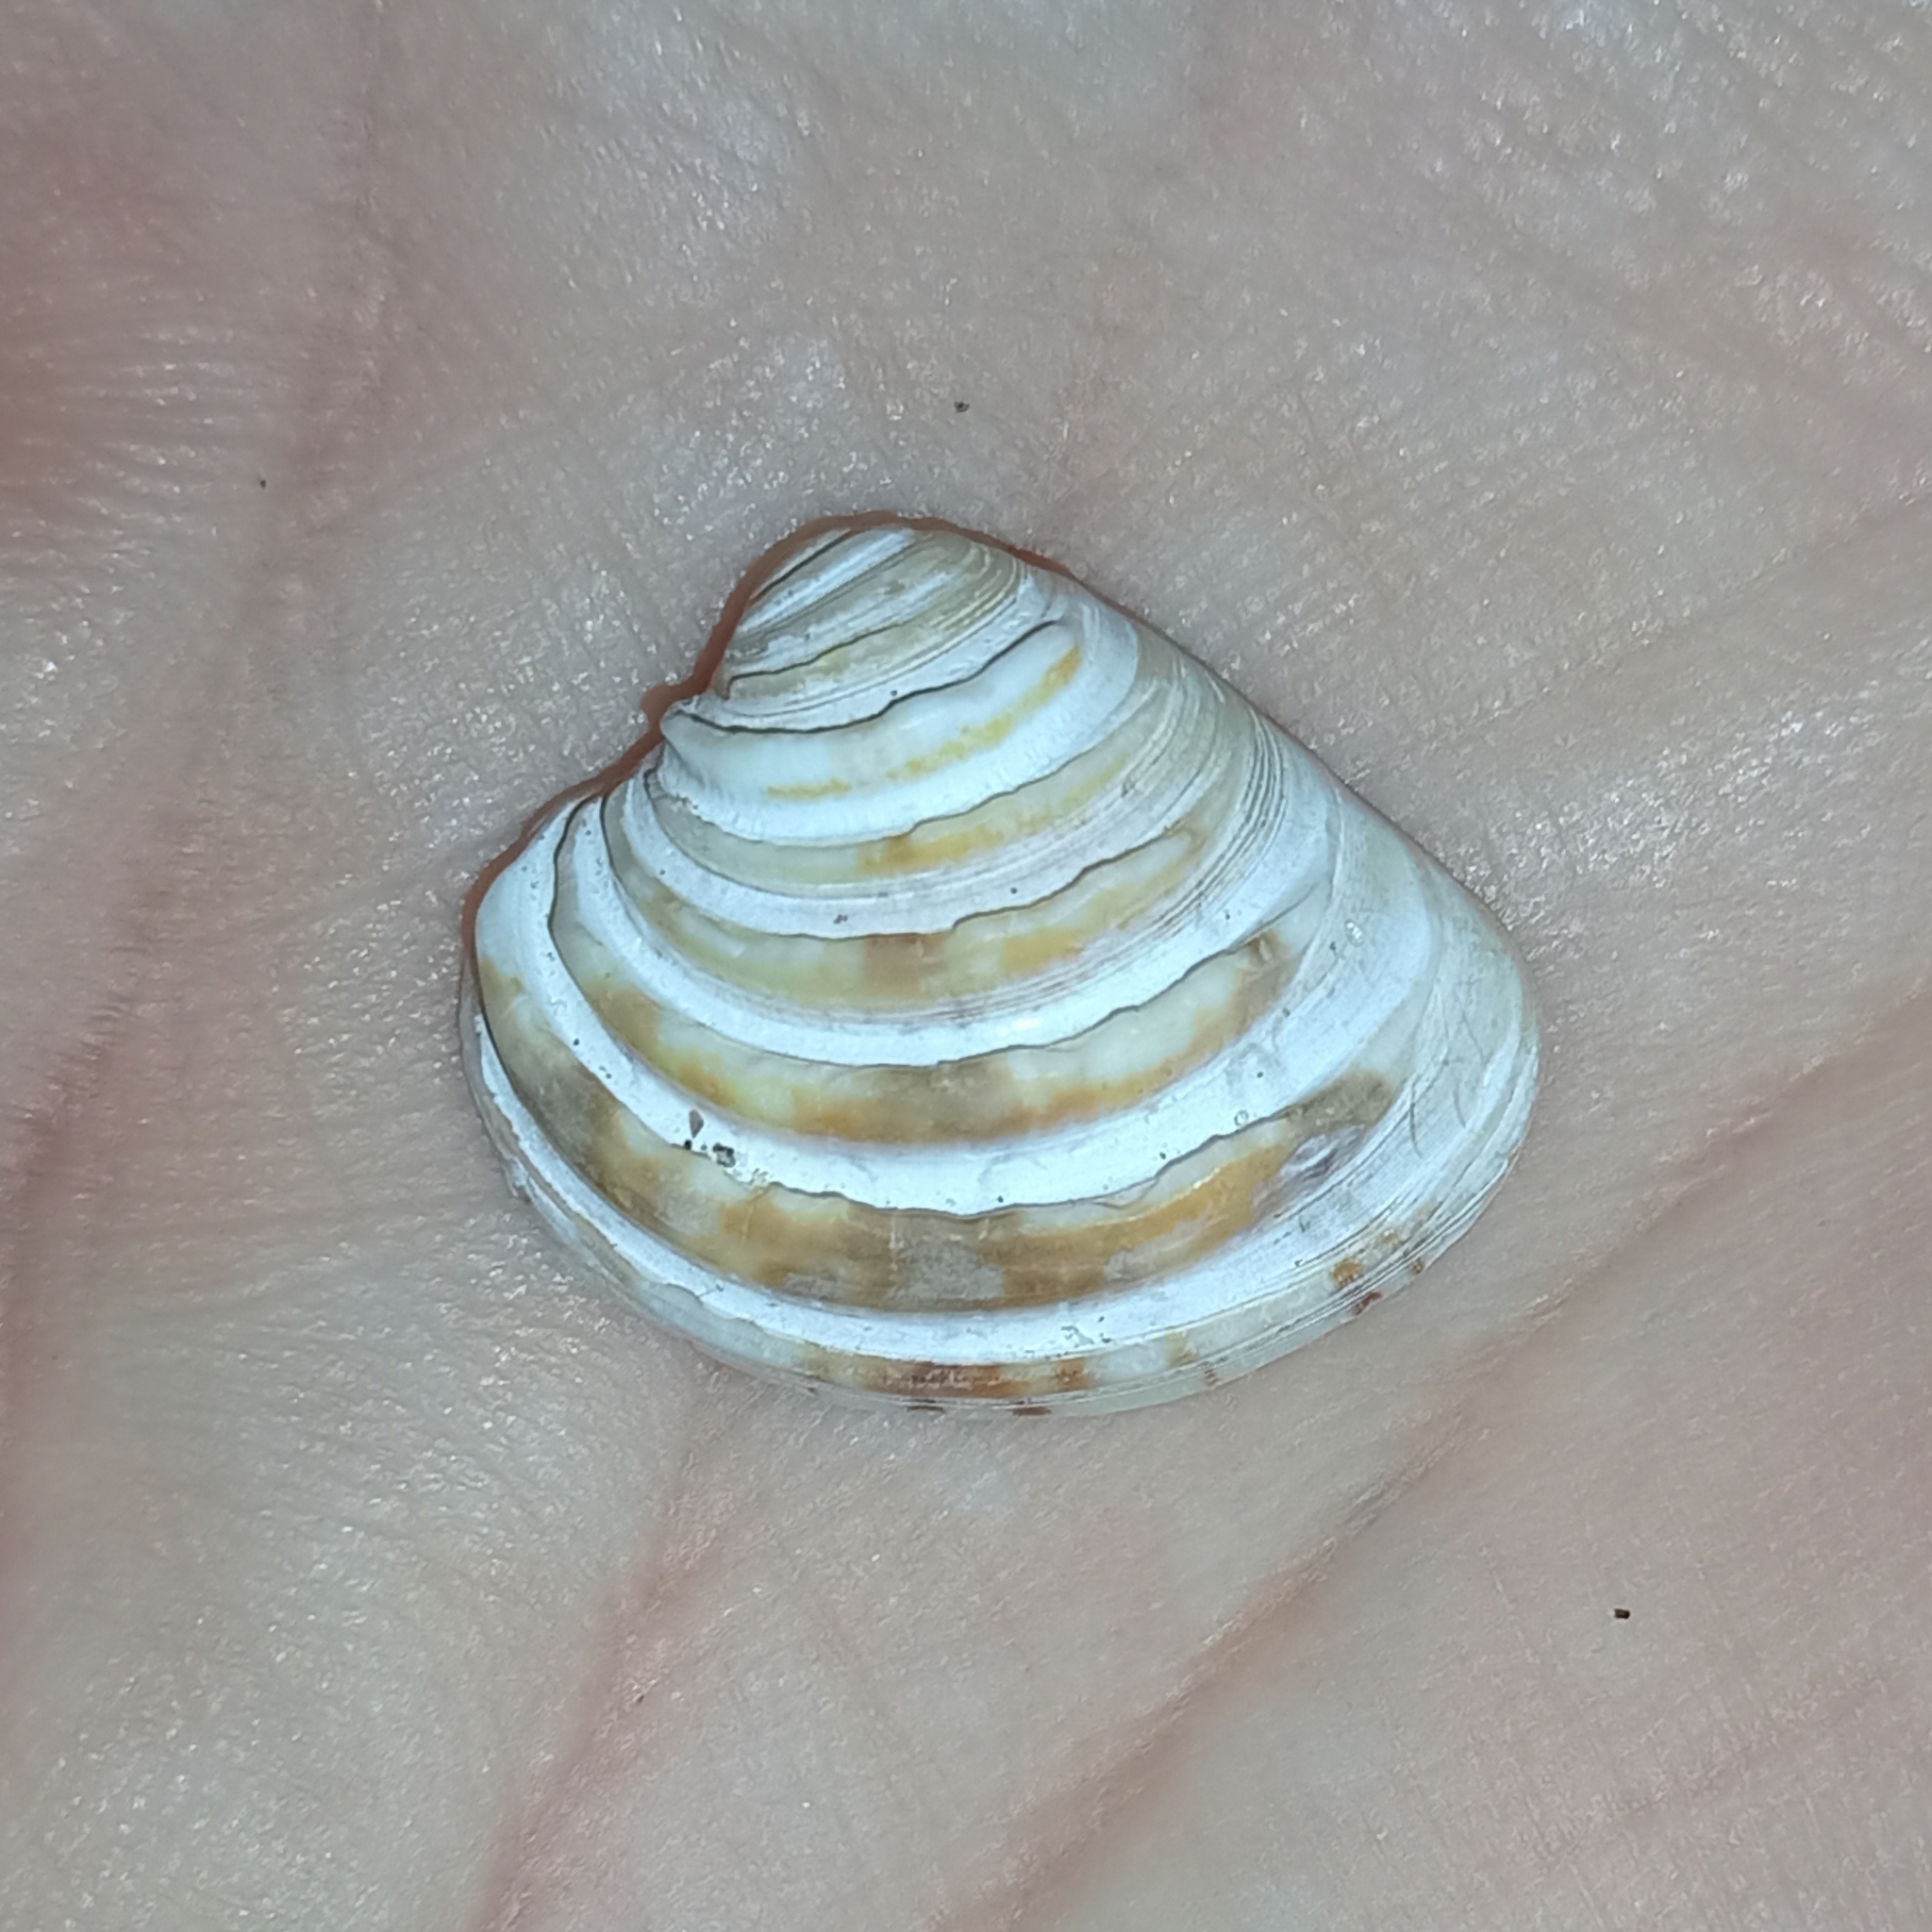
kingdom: Animalia
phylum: Mollusca
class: Bivalvia
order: Venerida
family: Veneridae
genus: Lirophora
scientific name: Lirophora paphia
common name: King venus
